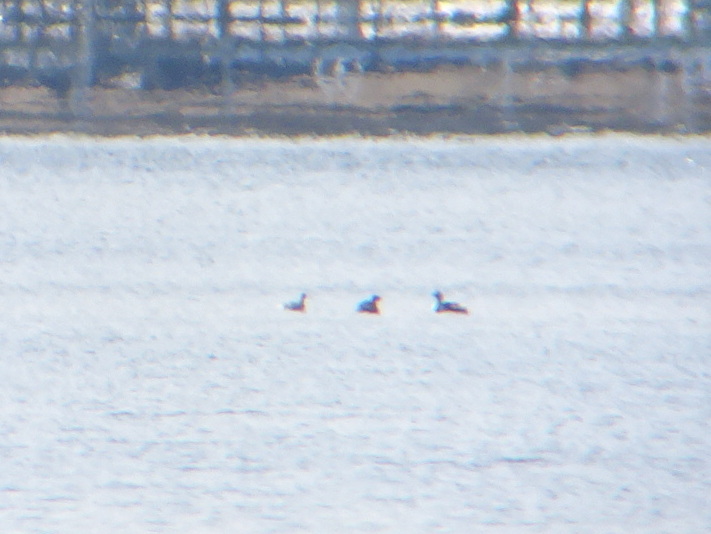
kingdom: Animalia
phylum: Chordata
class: Aves
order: Podicipediformes
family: Podicipedidae
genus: Podiceps
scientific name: Podiceps auritus
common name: Horned grebe
